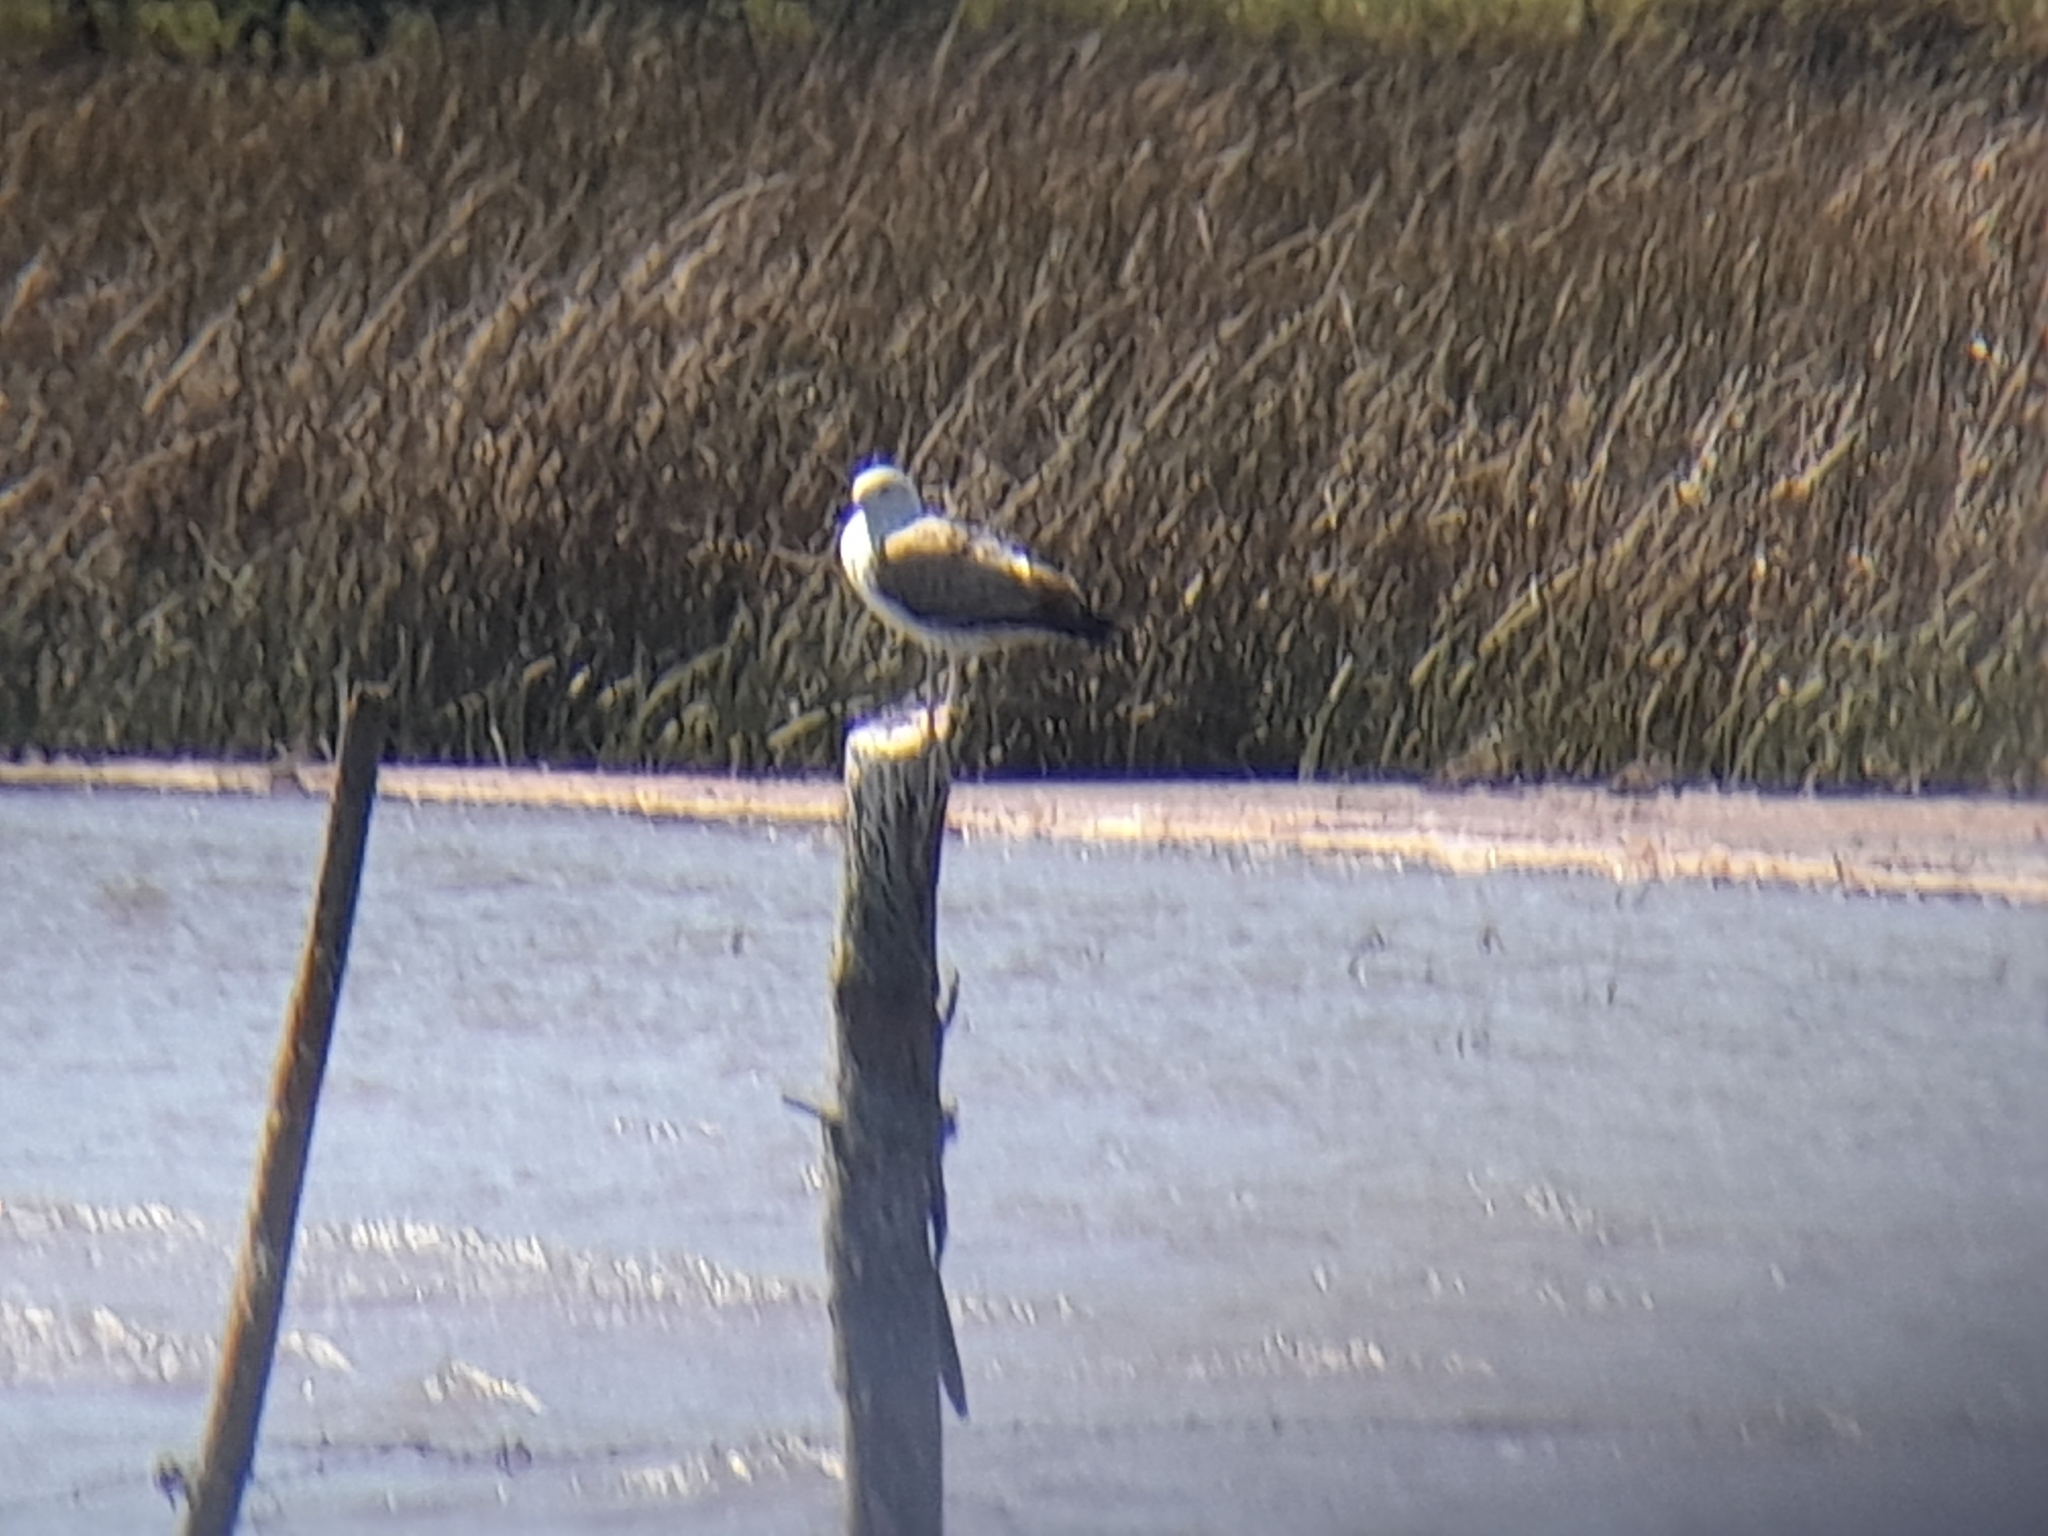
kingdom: Animalia
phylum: Chordata
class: Aves
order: Charadriiformes
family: Laridae
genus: Larus
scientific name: Larus dominicanus
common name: Kelp gull
